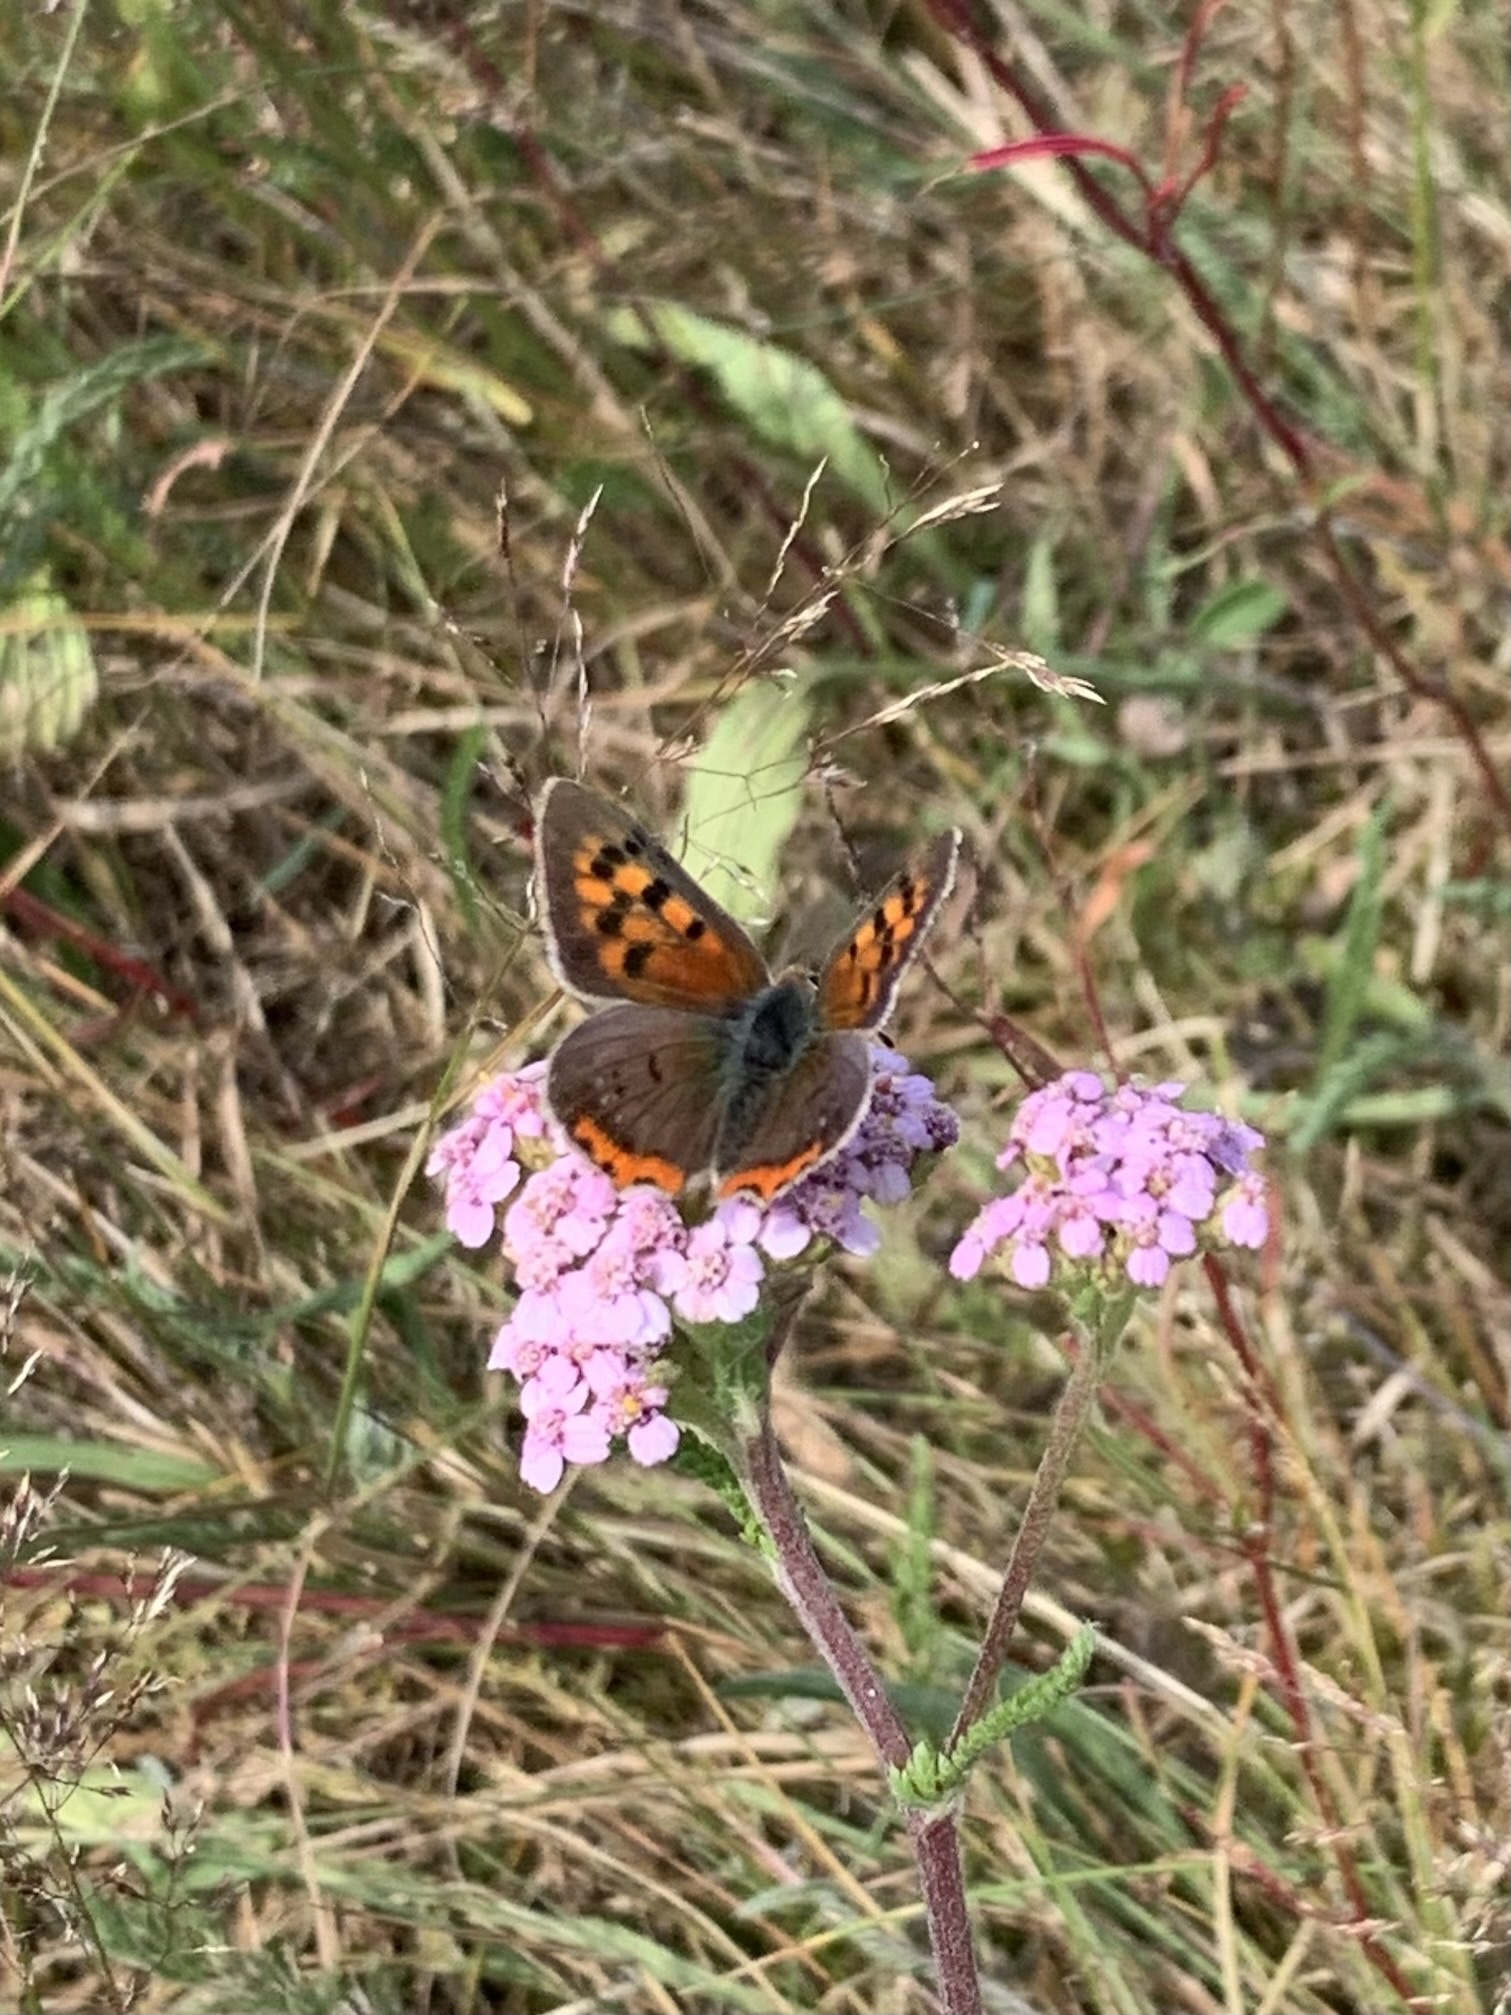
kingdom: Animalia
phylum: Arthropoda
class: Insecta
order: Lepidoptera
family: Lycaenidae
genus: Lycaena
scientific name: Lycaena phlaeas
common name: Small copper
